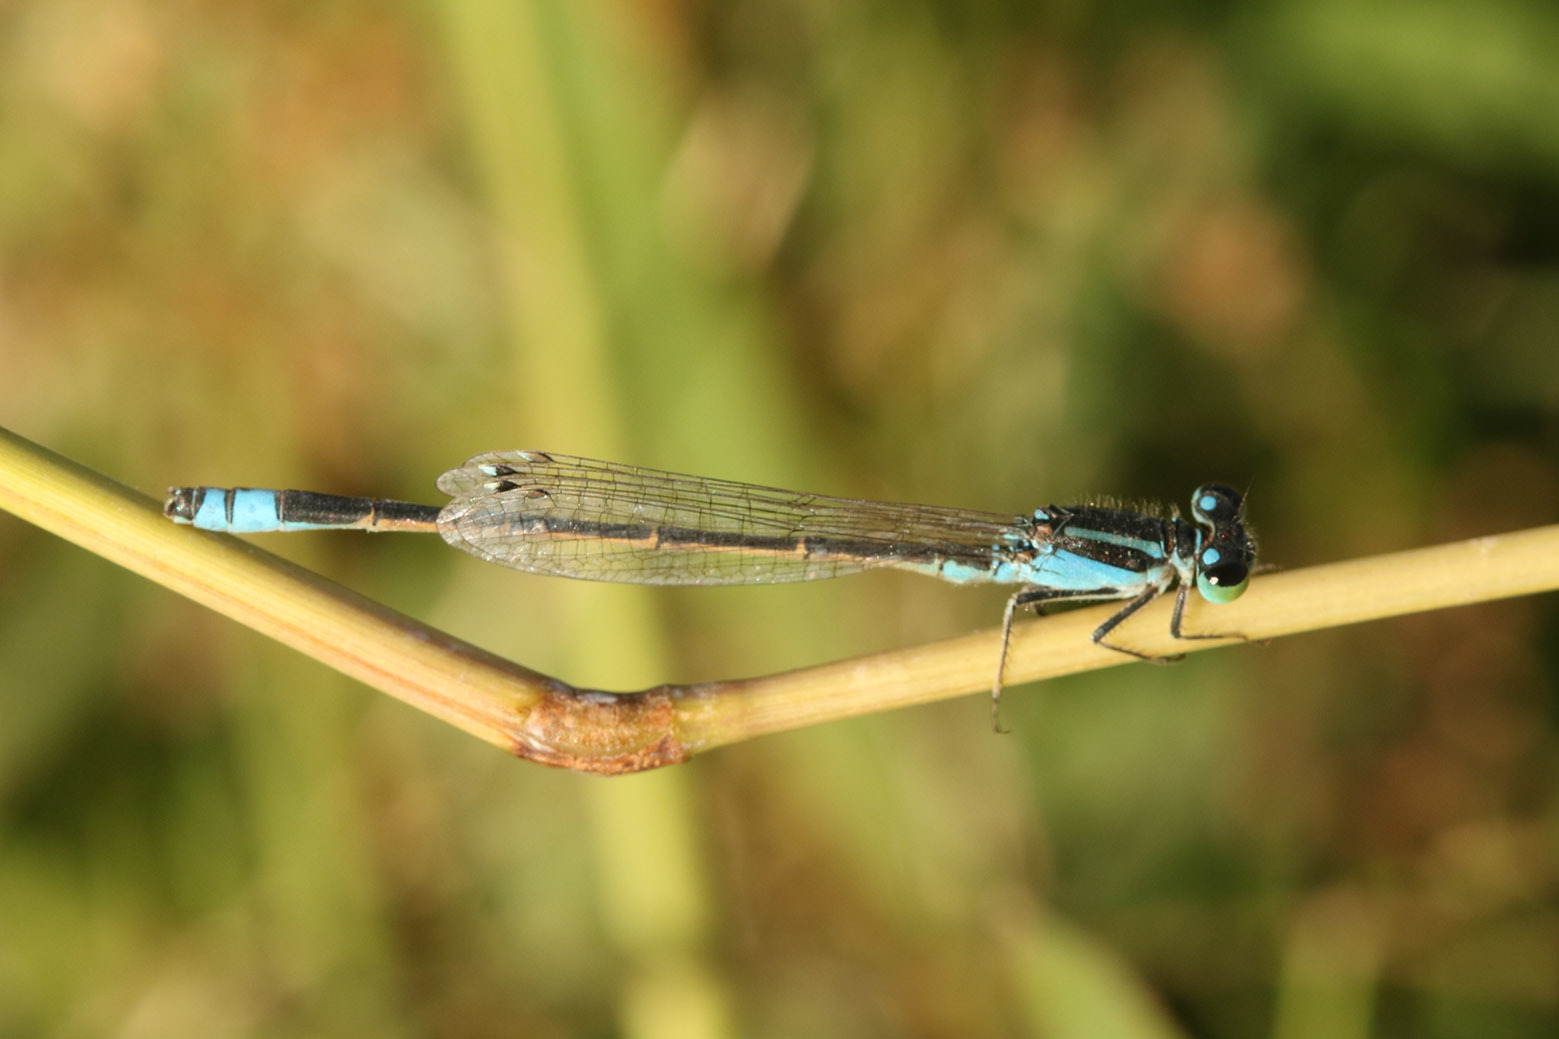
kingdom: Animalia
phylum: Arthropoda
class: Insecta
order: Odonata
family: Coenagrionidae
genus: Ischnura
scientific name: Ischnura fluviatilis
